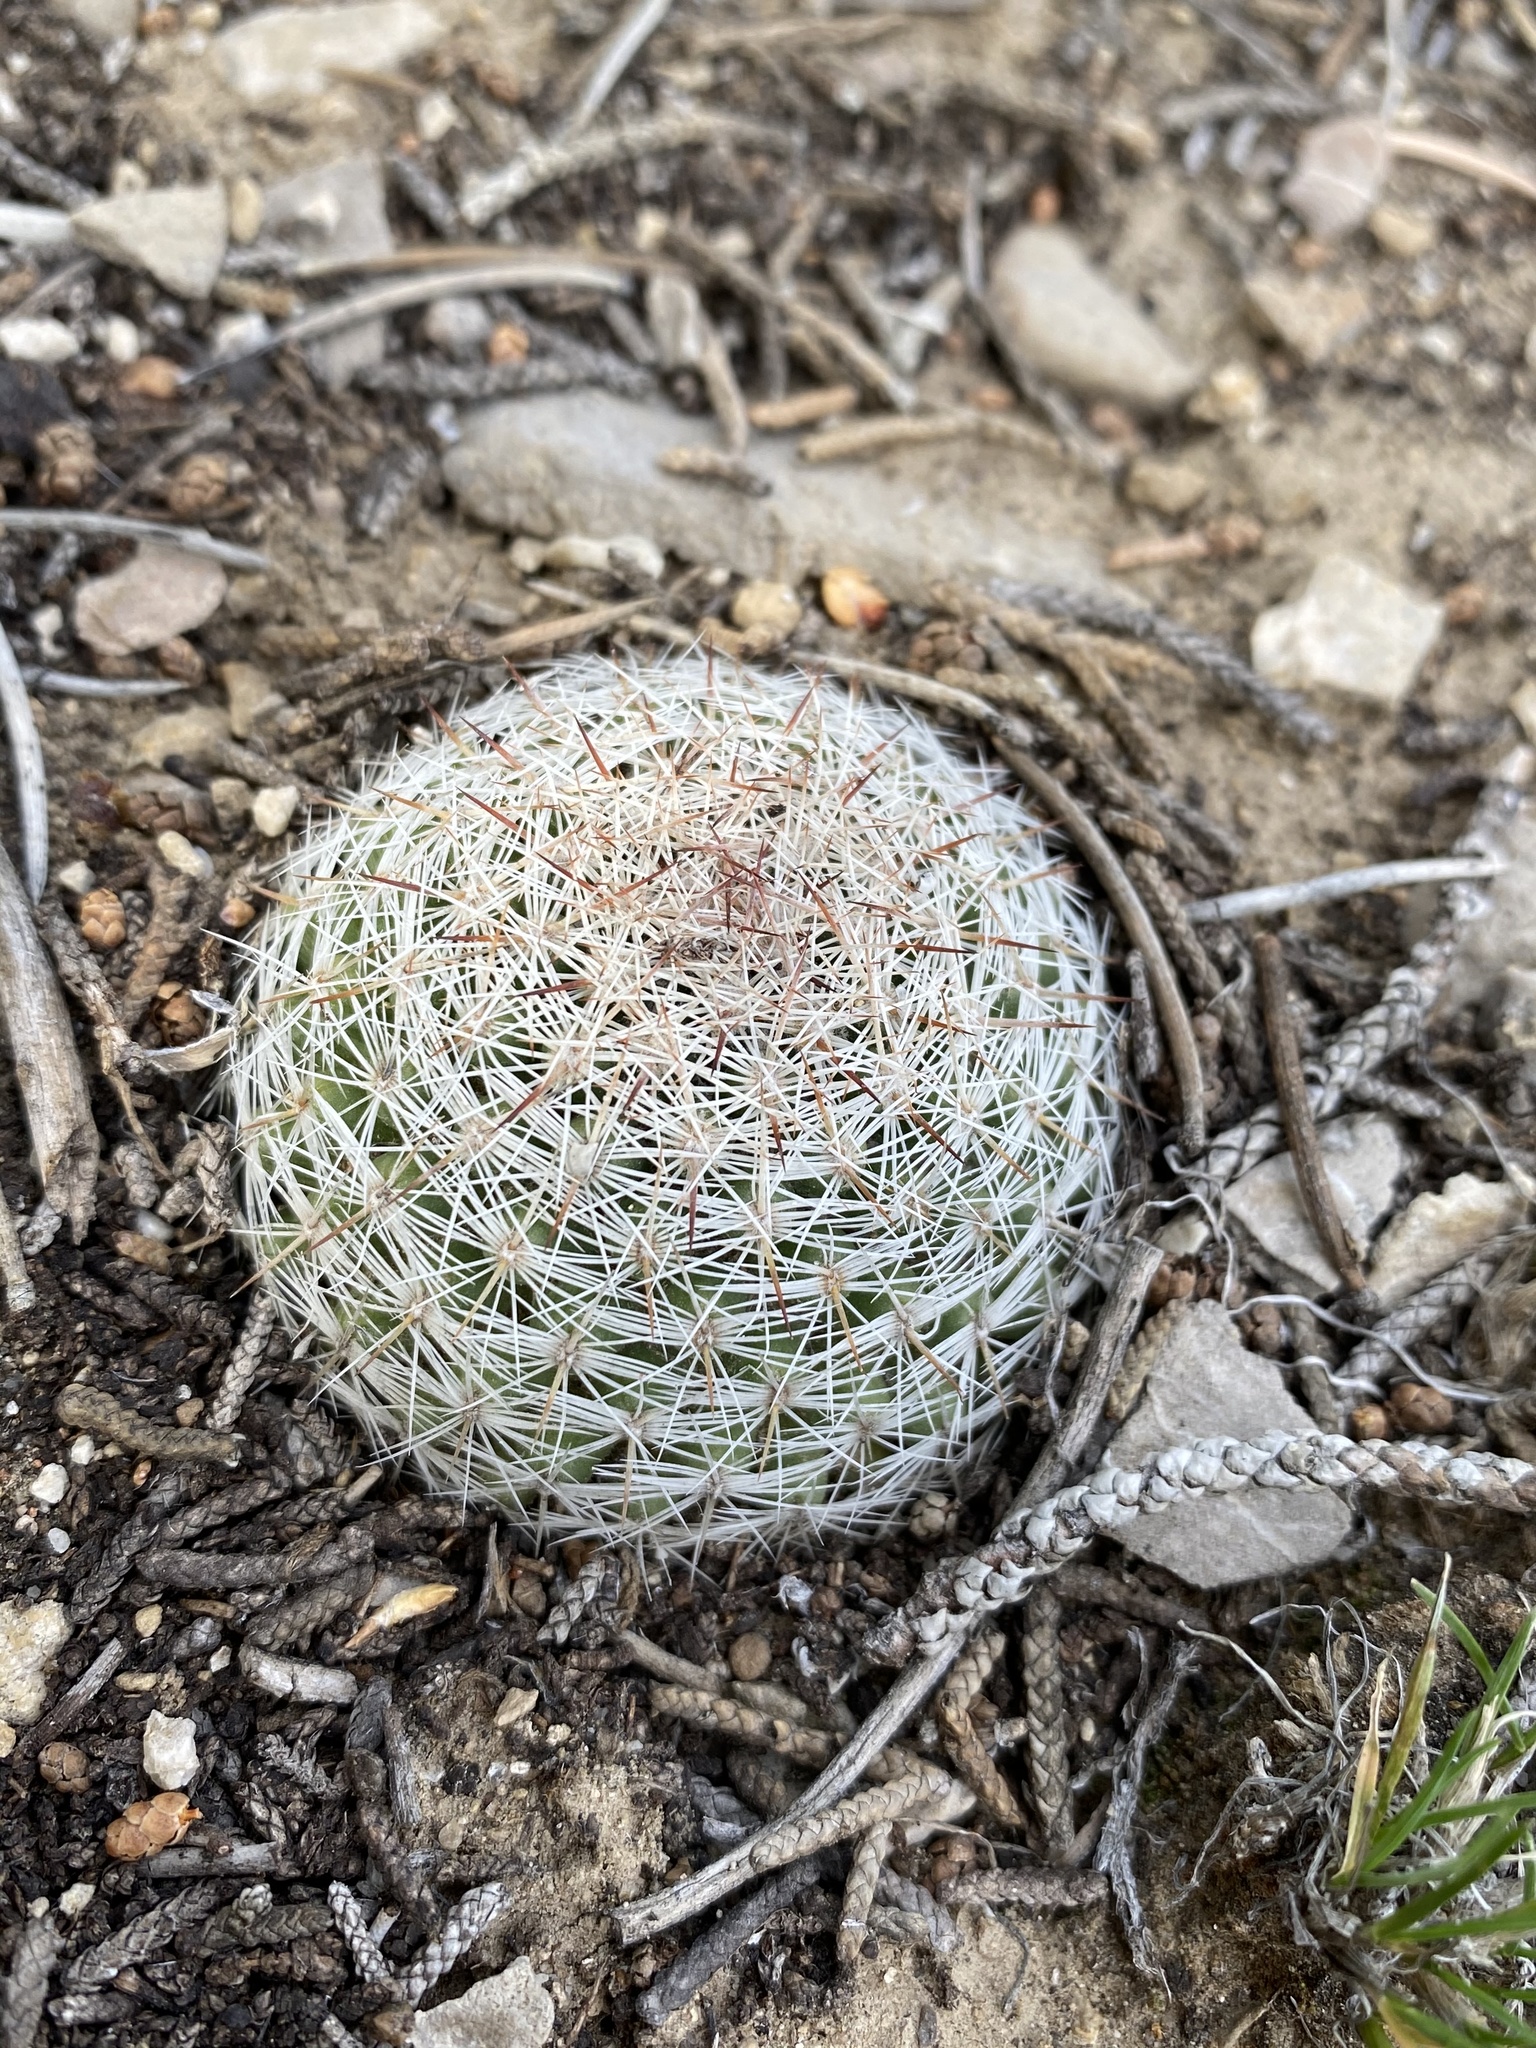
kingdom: Plantae
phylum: Tracheophyta
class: Magnoliopsida
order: Caryophyllales
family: Cactaceae
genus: Pelecyphora
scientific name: Pelecyphora vivipara
